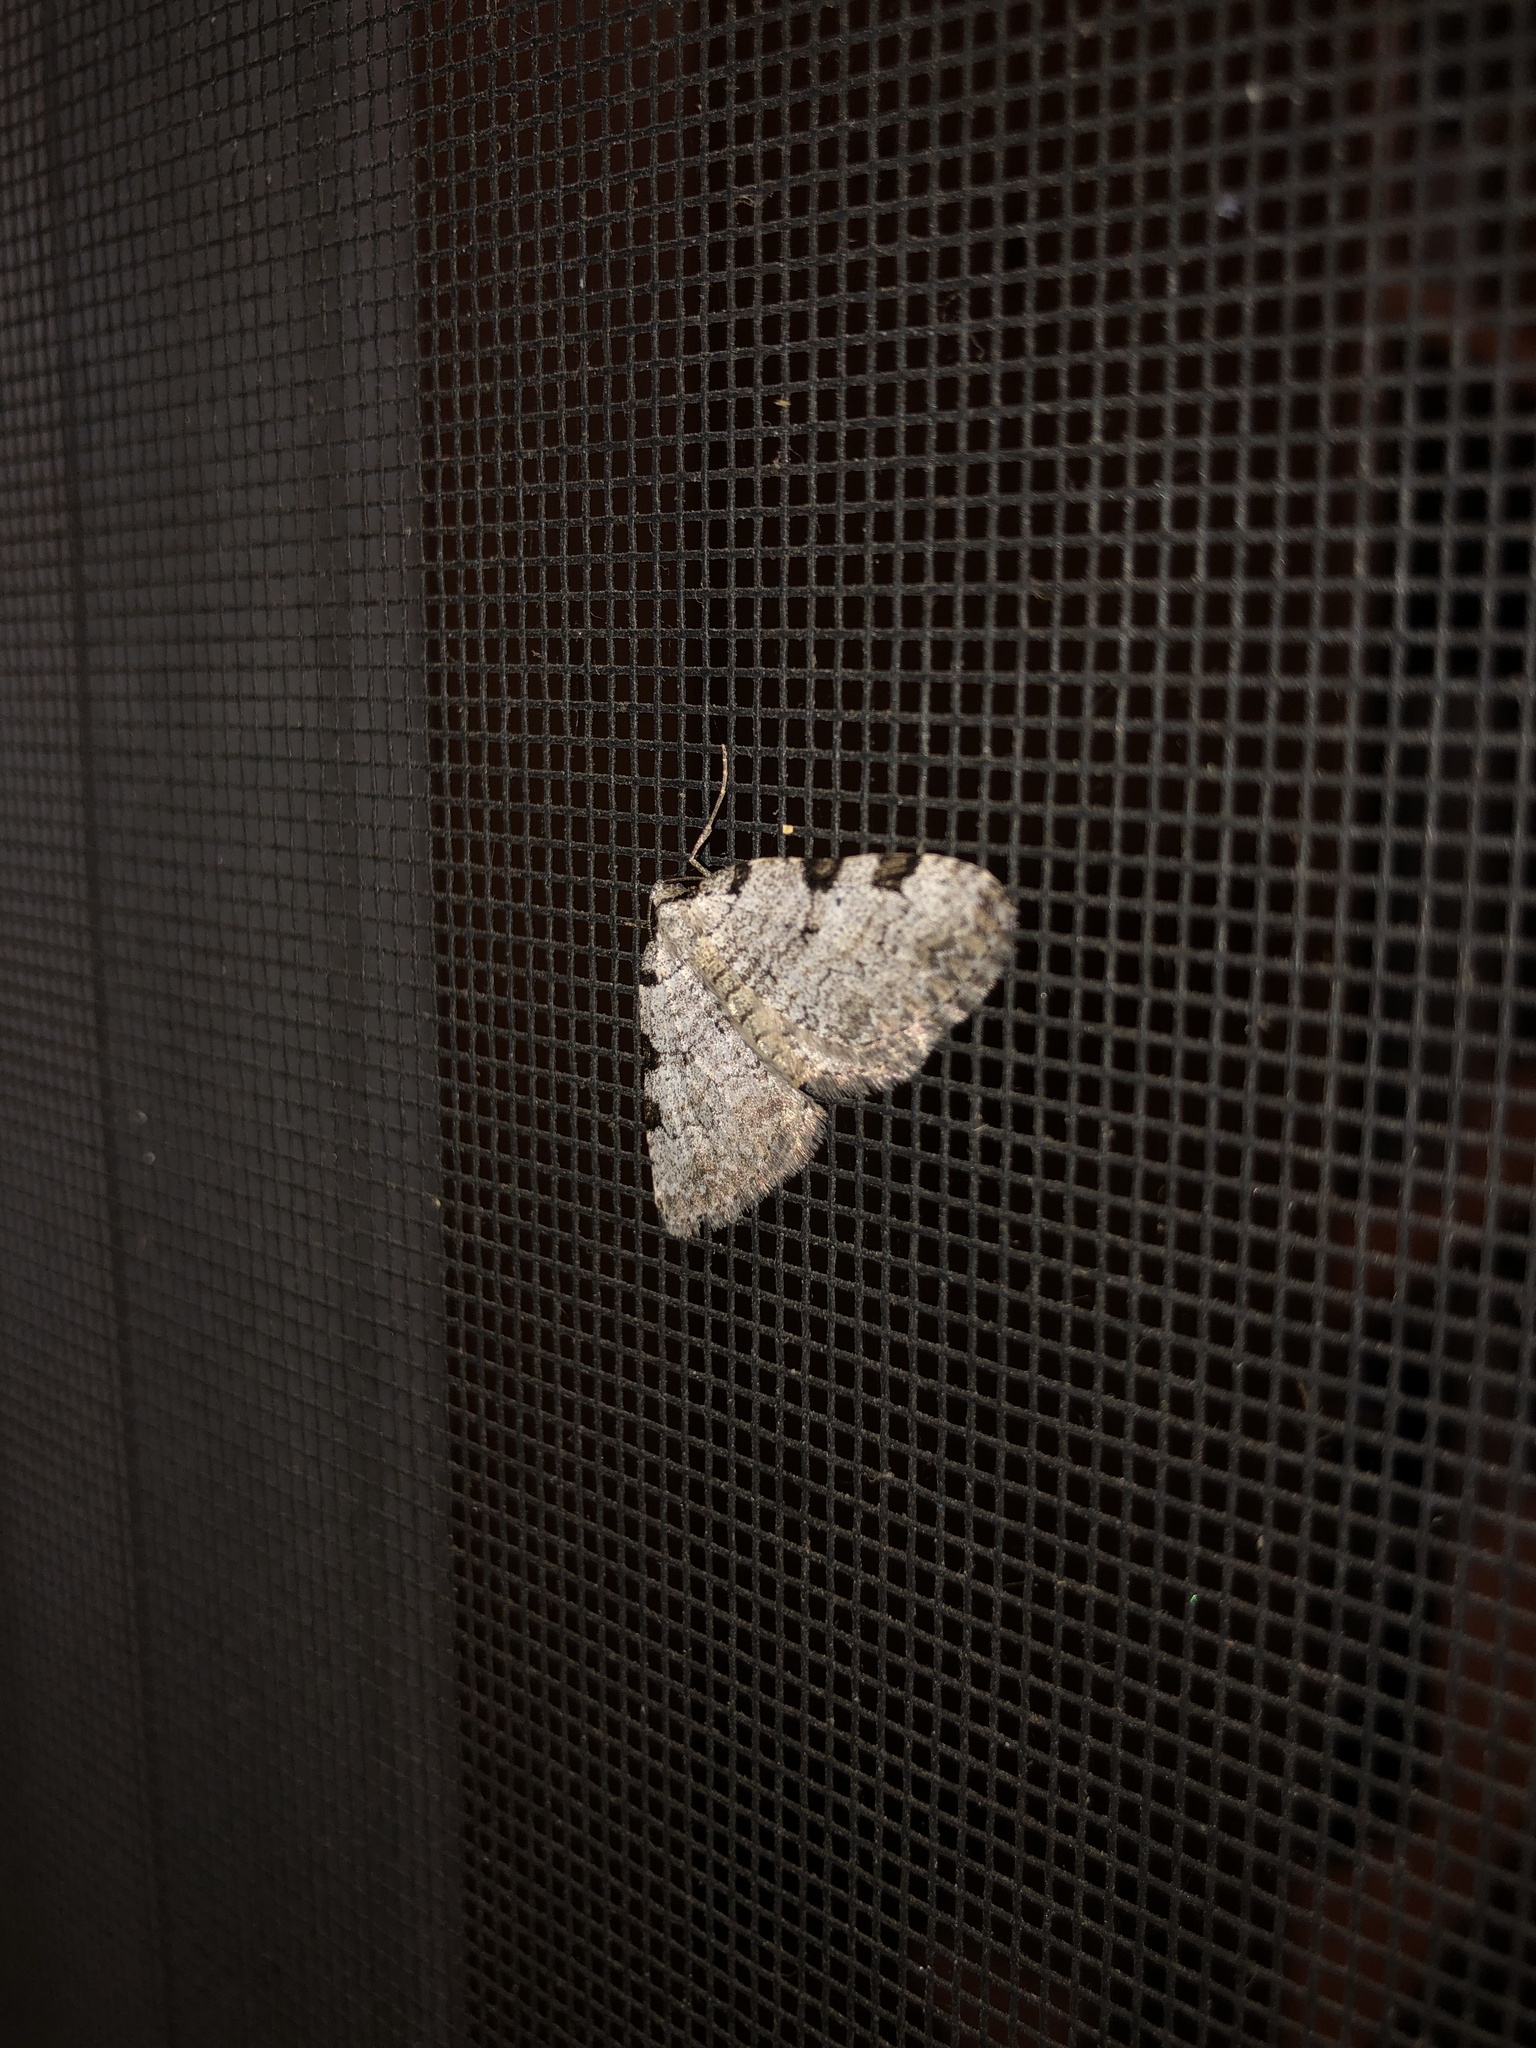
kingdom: Animalia
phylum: Arthropoda
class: Insecta
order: Lepidoptera
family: Geometridae
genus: Perizoma
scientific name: Perizoma costiguttata
